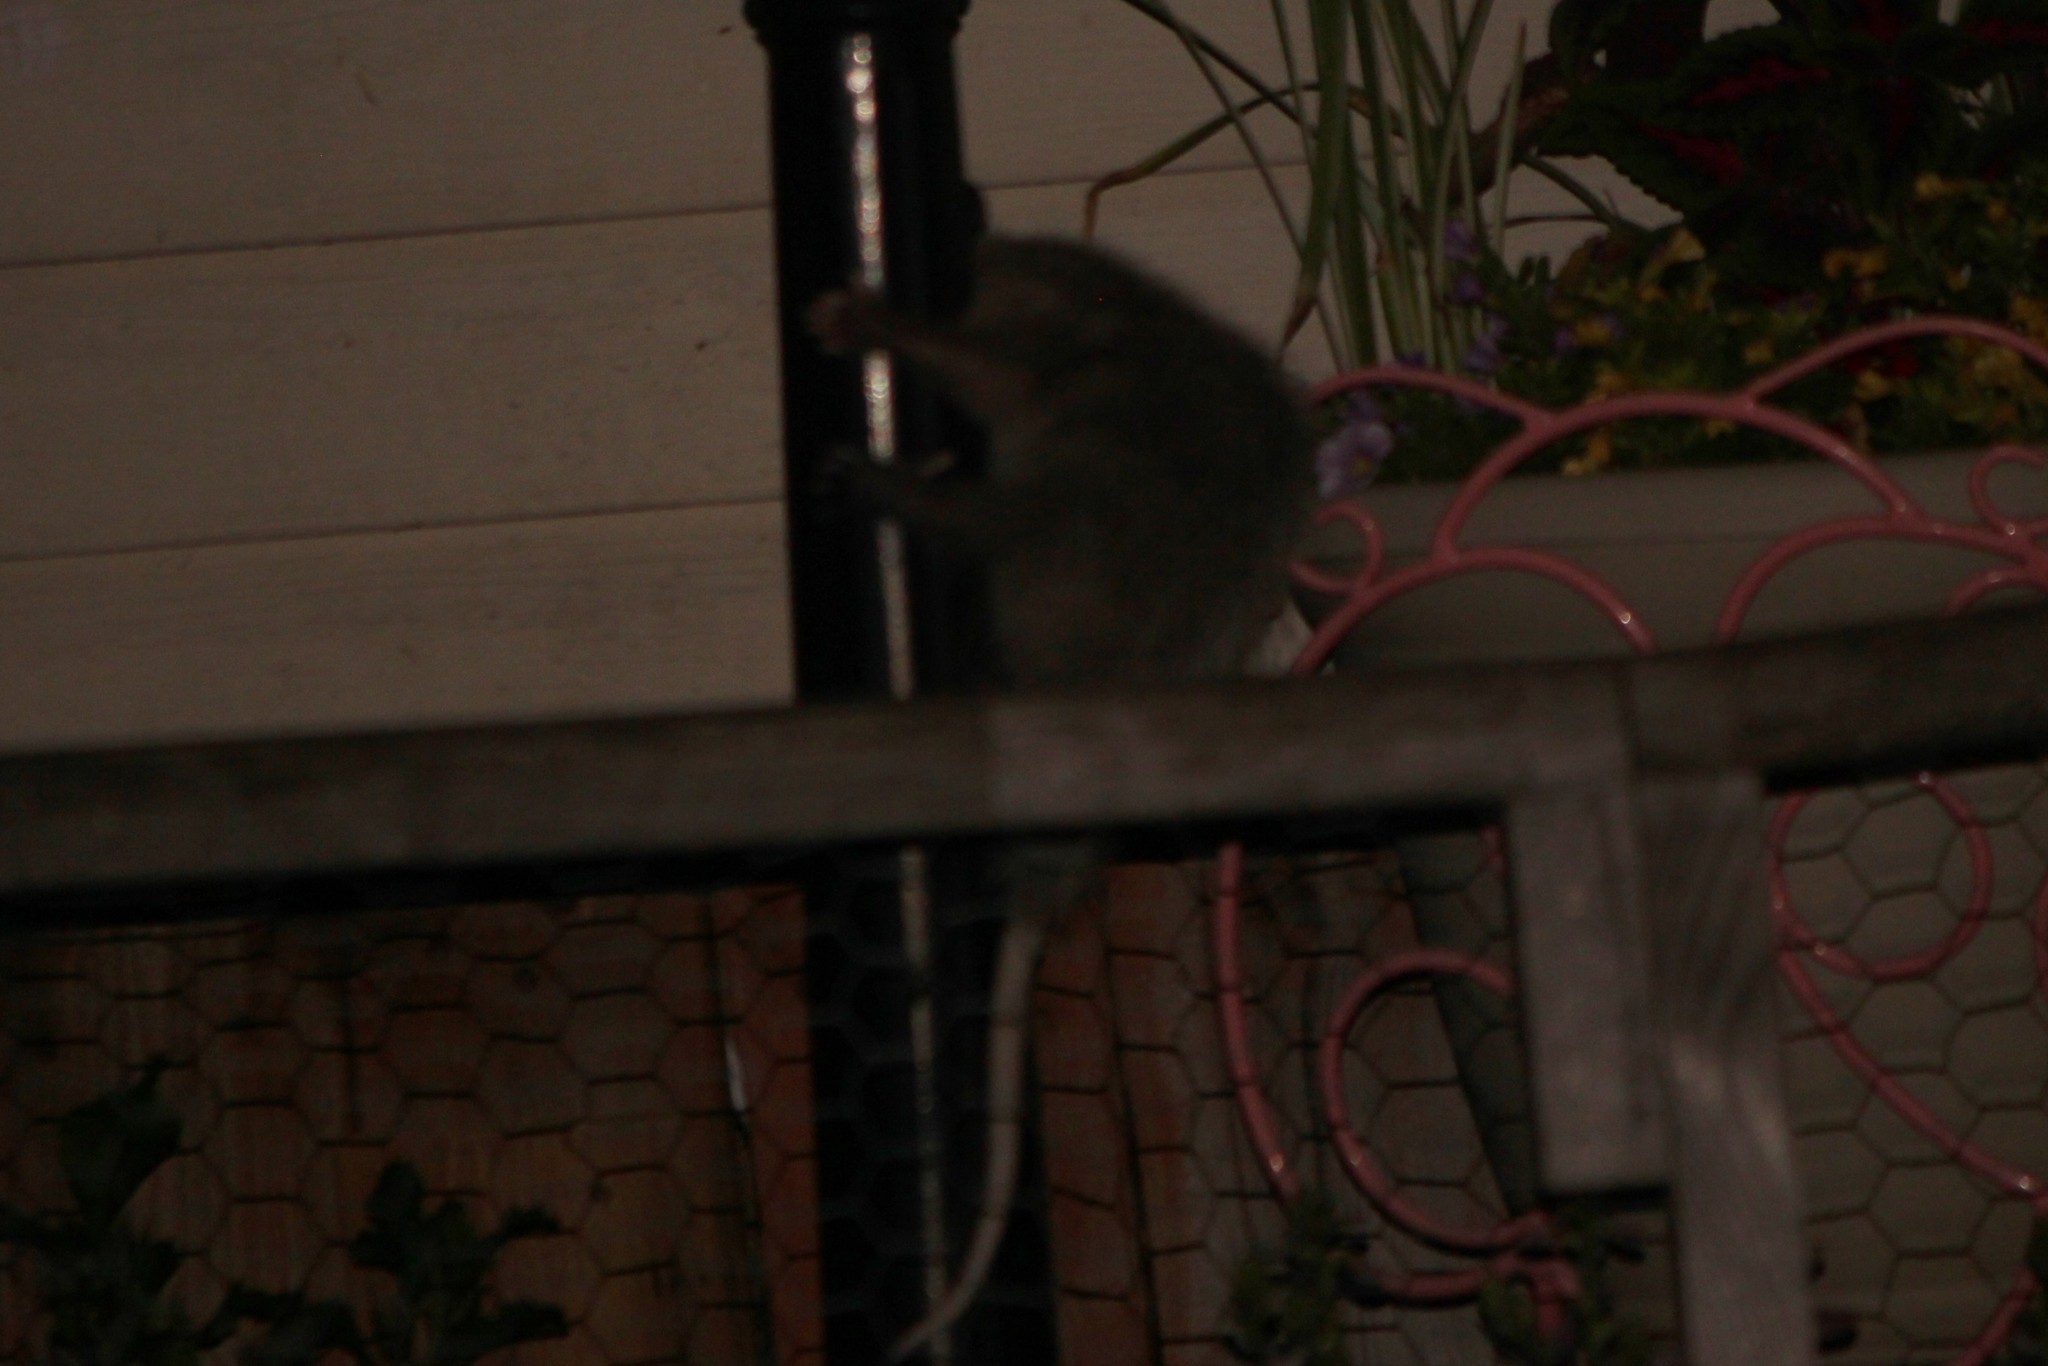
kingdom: Animalia
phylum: Chordata
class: Mammalia
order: Didelphimorphia
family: Didelphidae
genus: Didelphis
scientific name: Didelphis virginiana
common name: Virginia opossum
